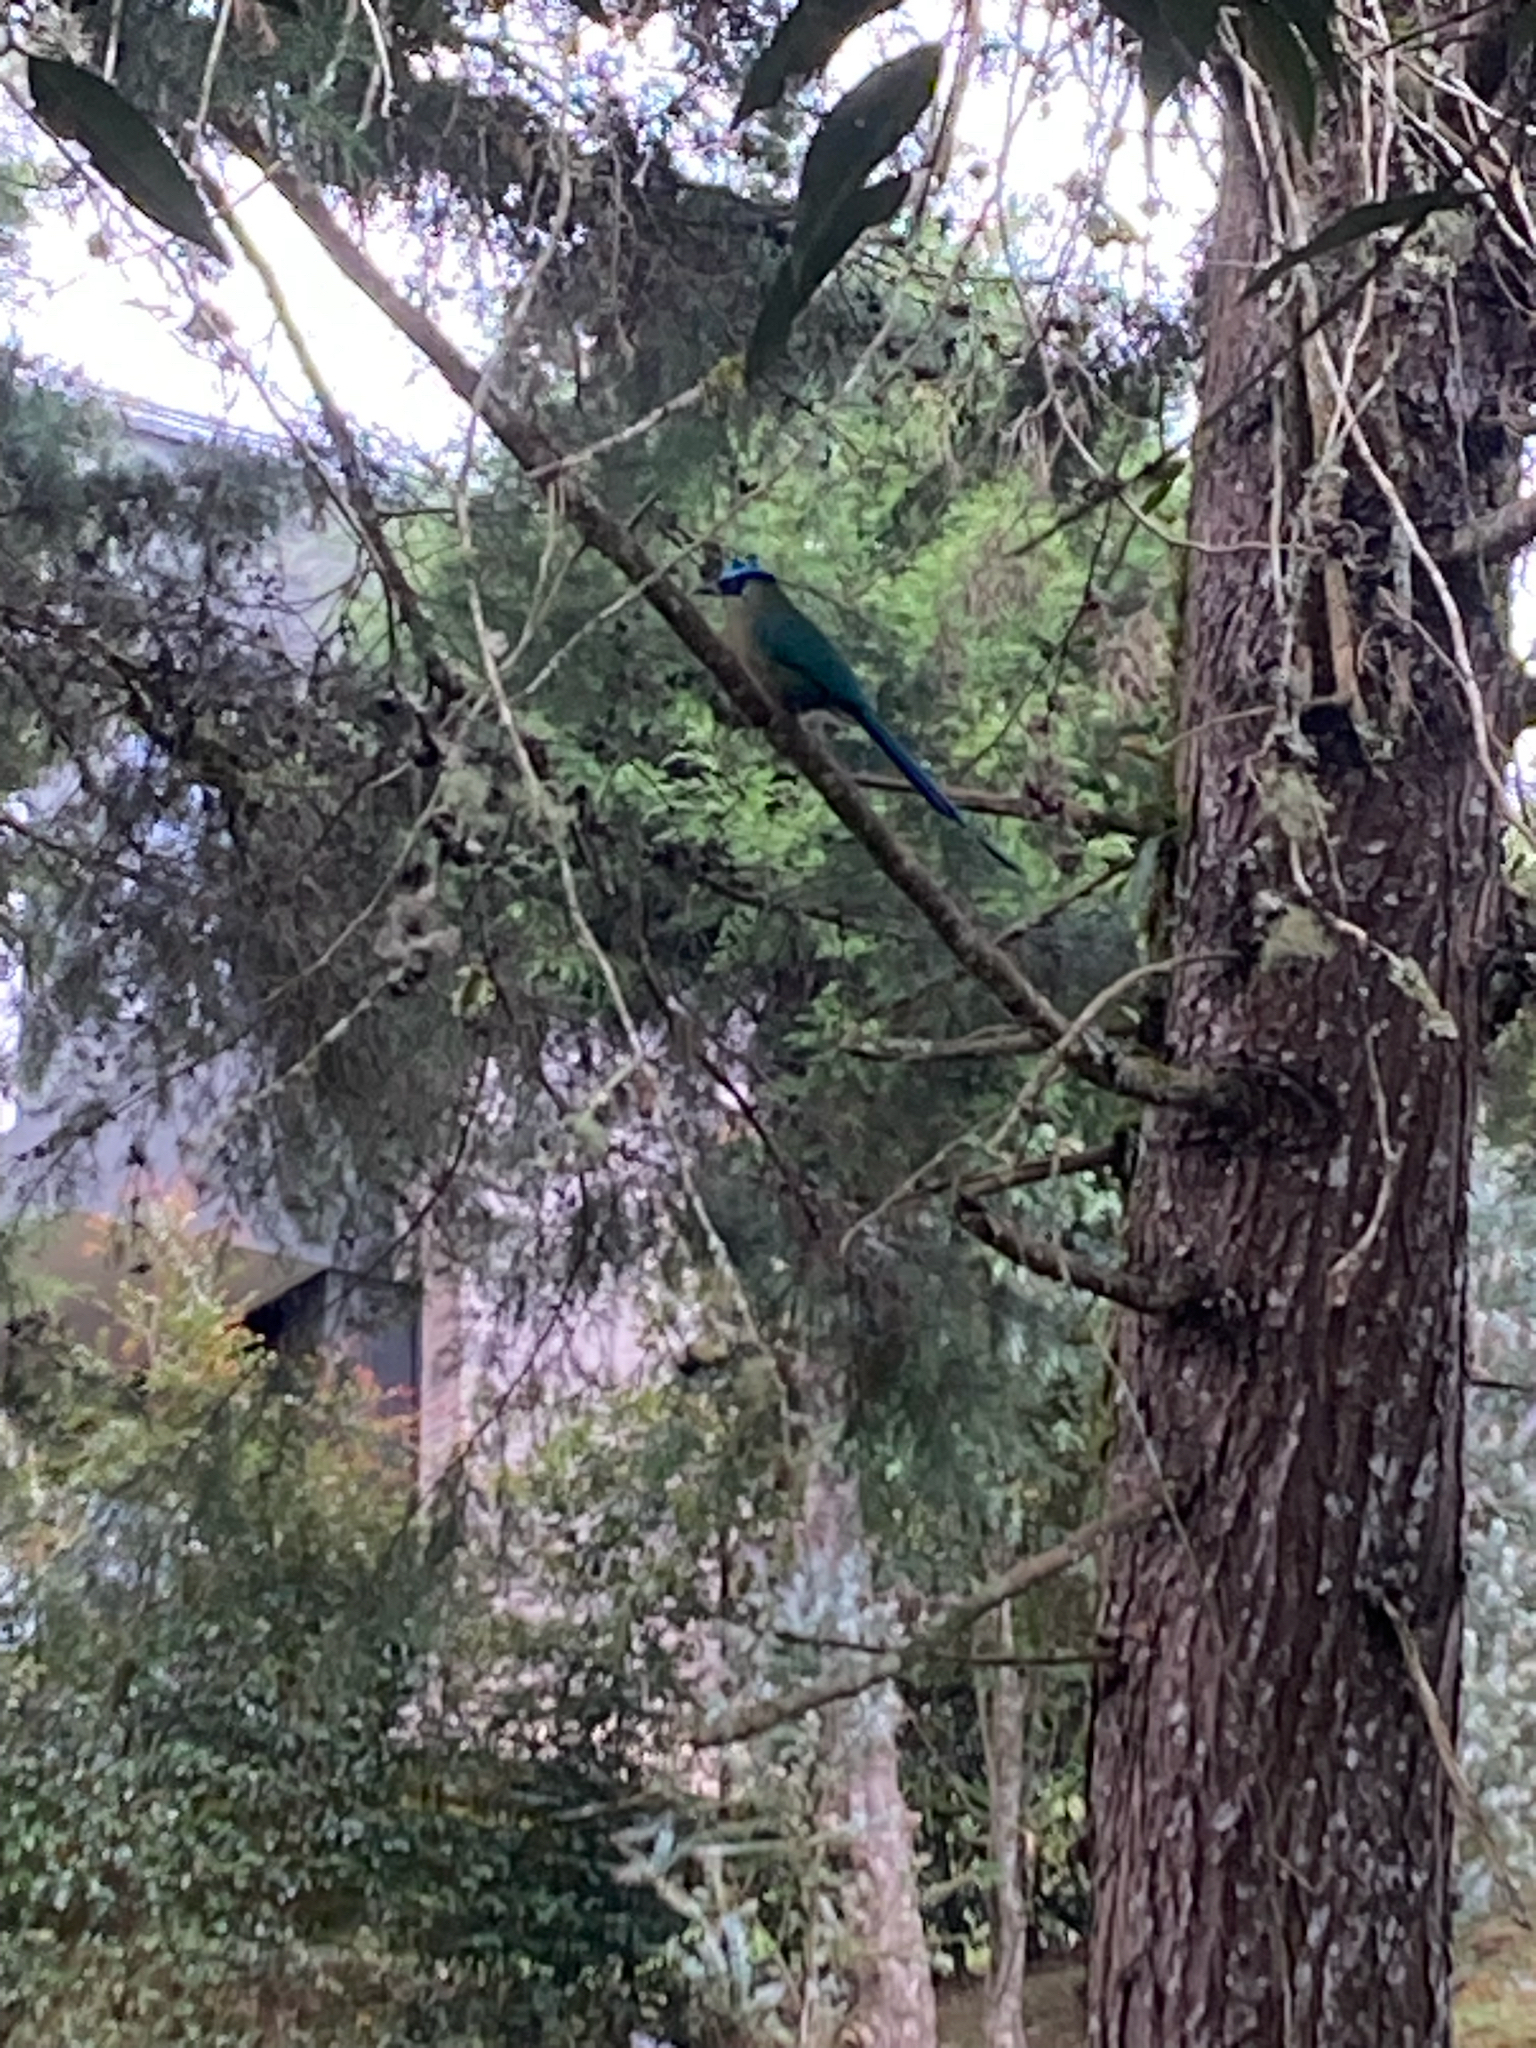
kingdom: Animalia
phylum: Chordata
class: Aves
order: Coraciiformes
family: Momotidae
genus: Momotus
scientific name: Momotus aequatorialis
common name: Andean motmot
